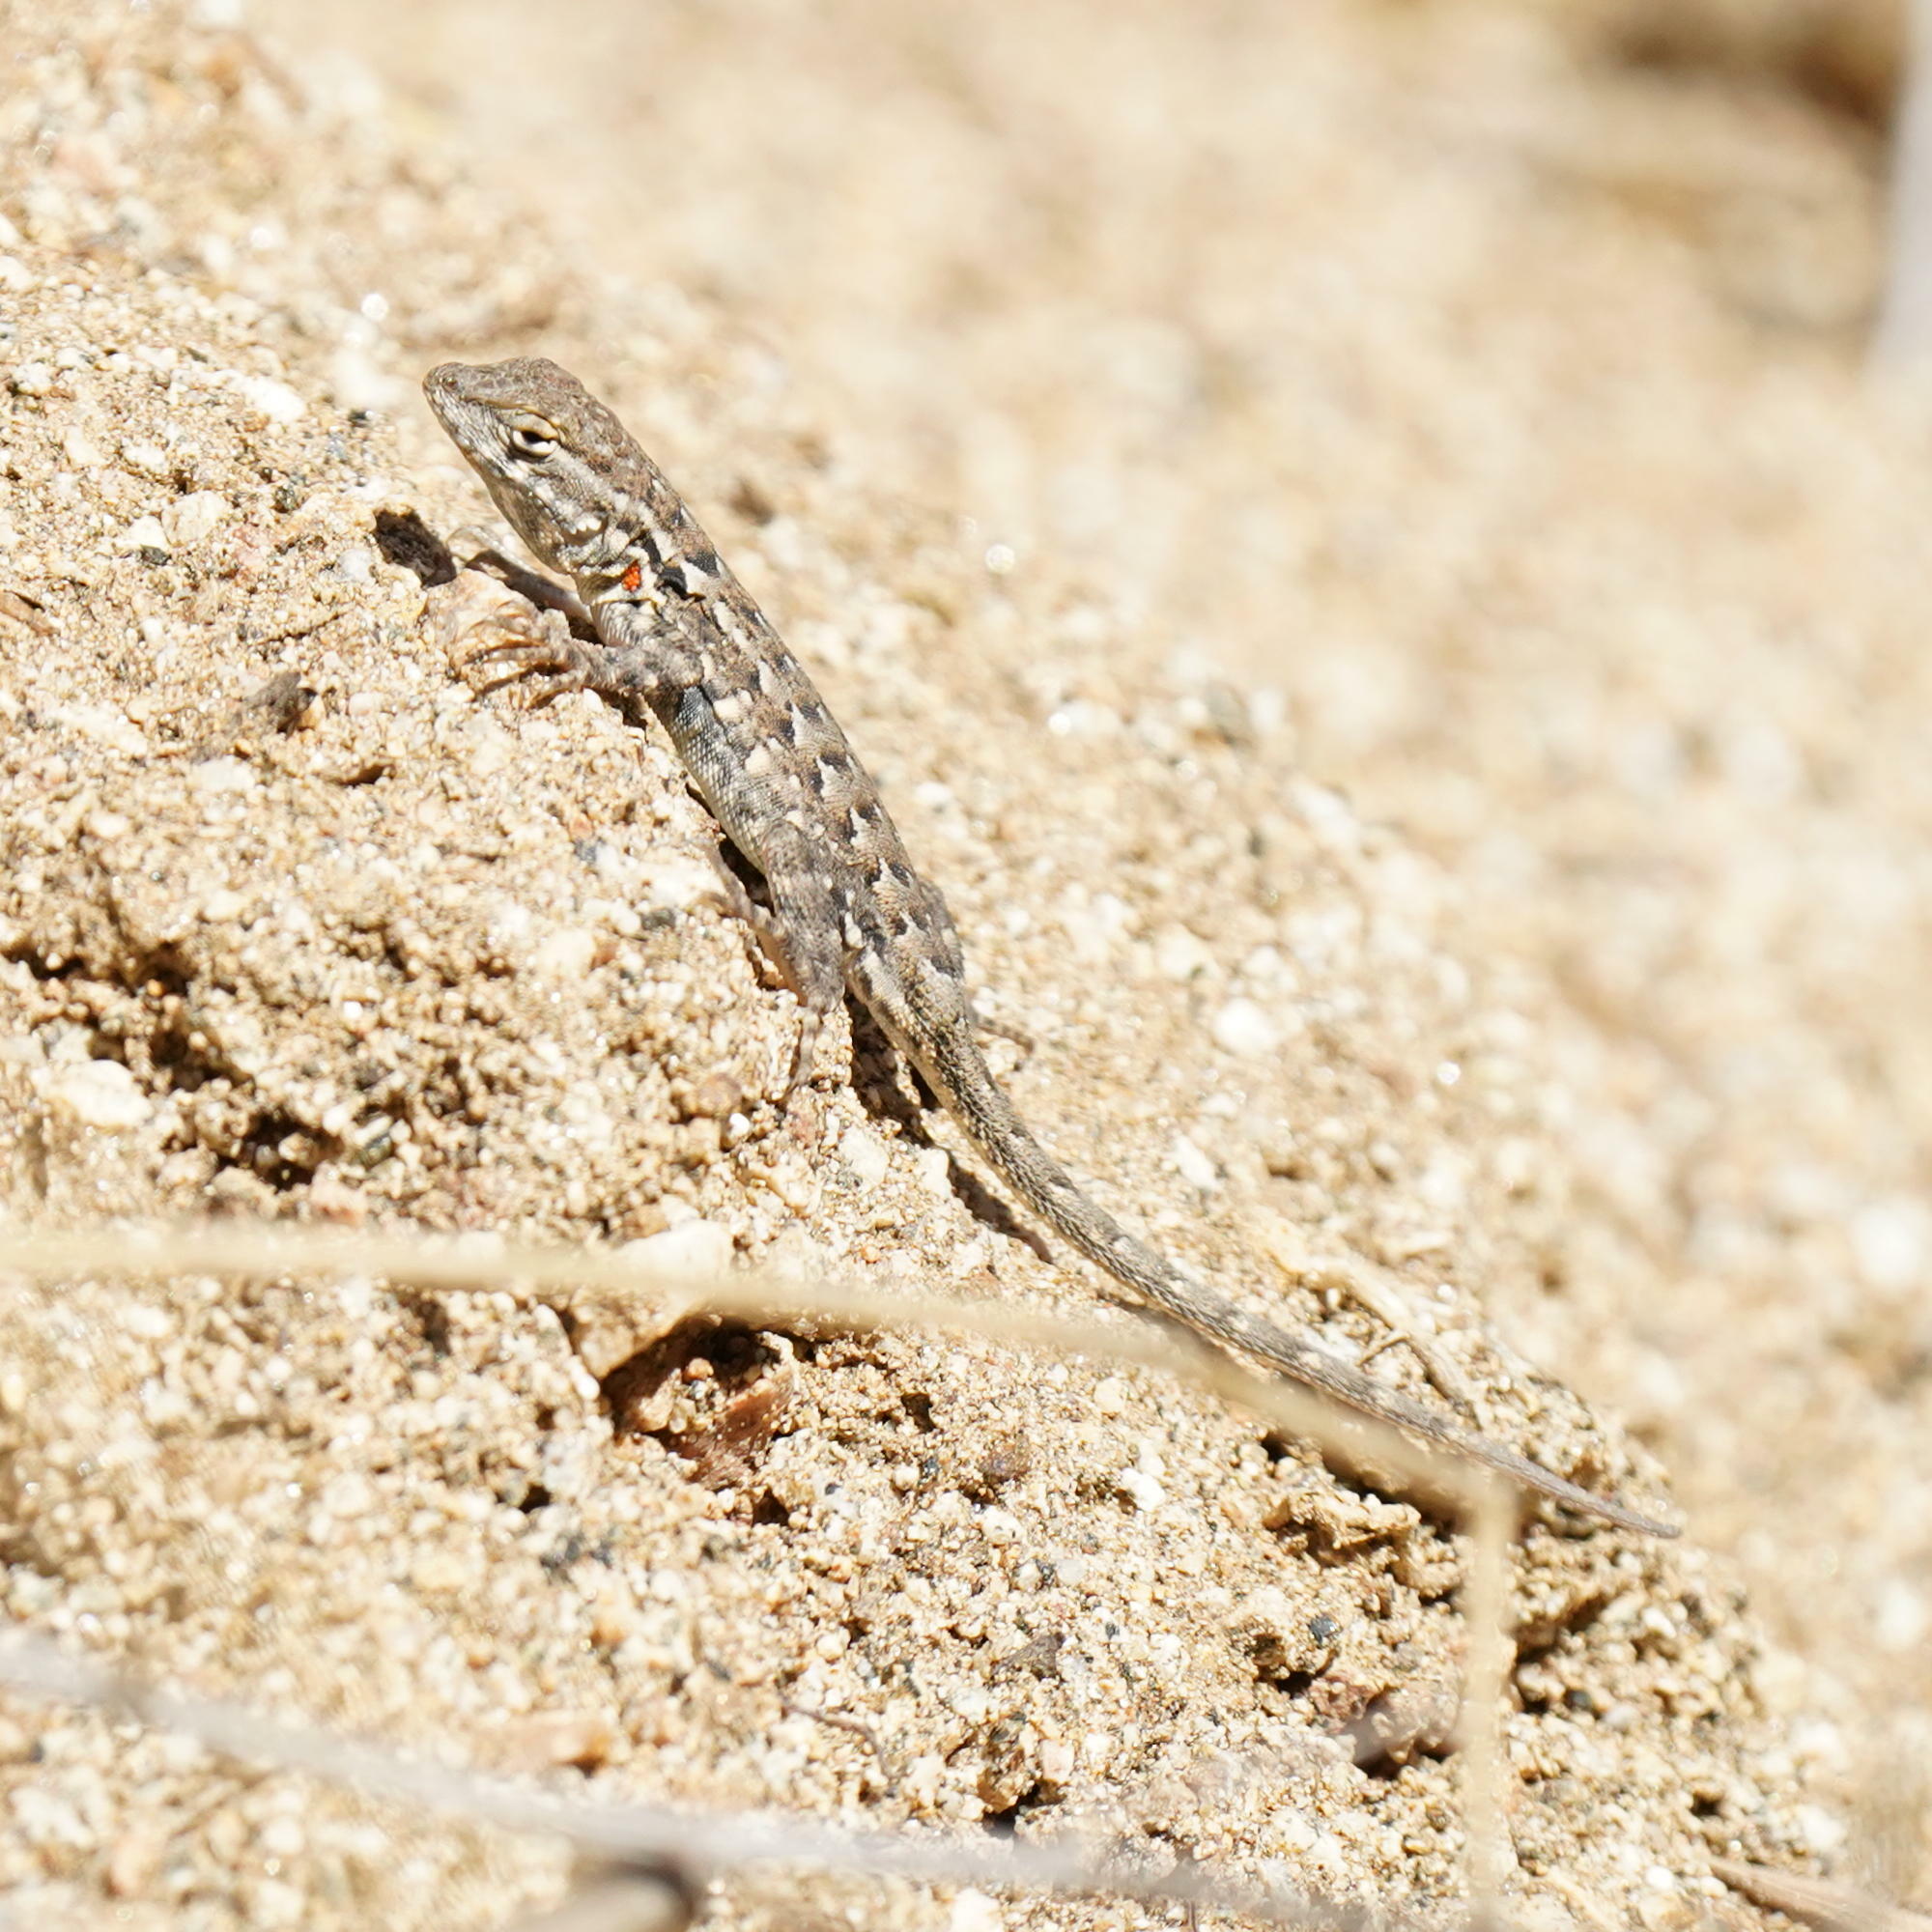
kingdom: Animalia
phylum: Chordata
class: Squamata
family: Phrynosomatidae
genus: Uta
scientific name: Uta stansburiana
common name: Side-blotched lizard
